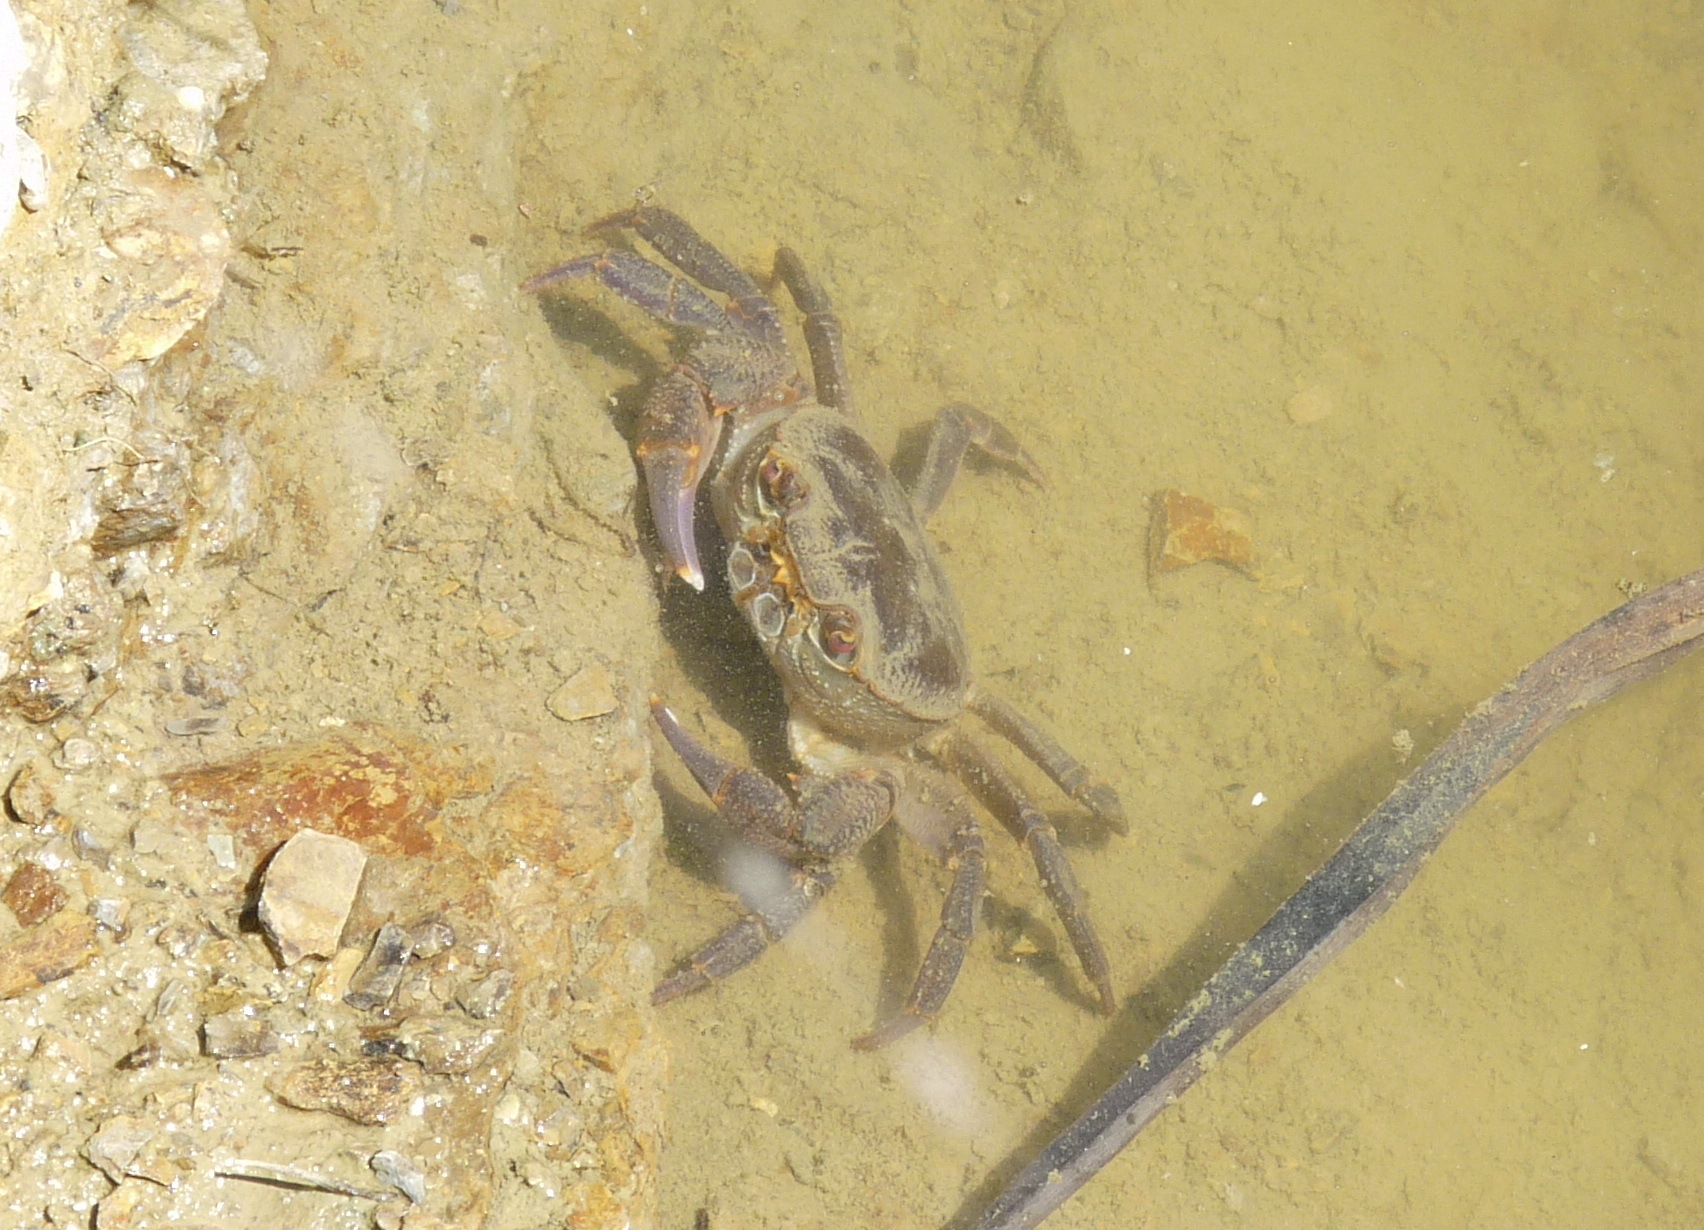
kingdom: Animalia
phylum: Arthropoda
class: Malacostraca
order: Decapoda
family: Potamidae
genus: Potamon
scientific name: Potamon algeriense
